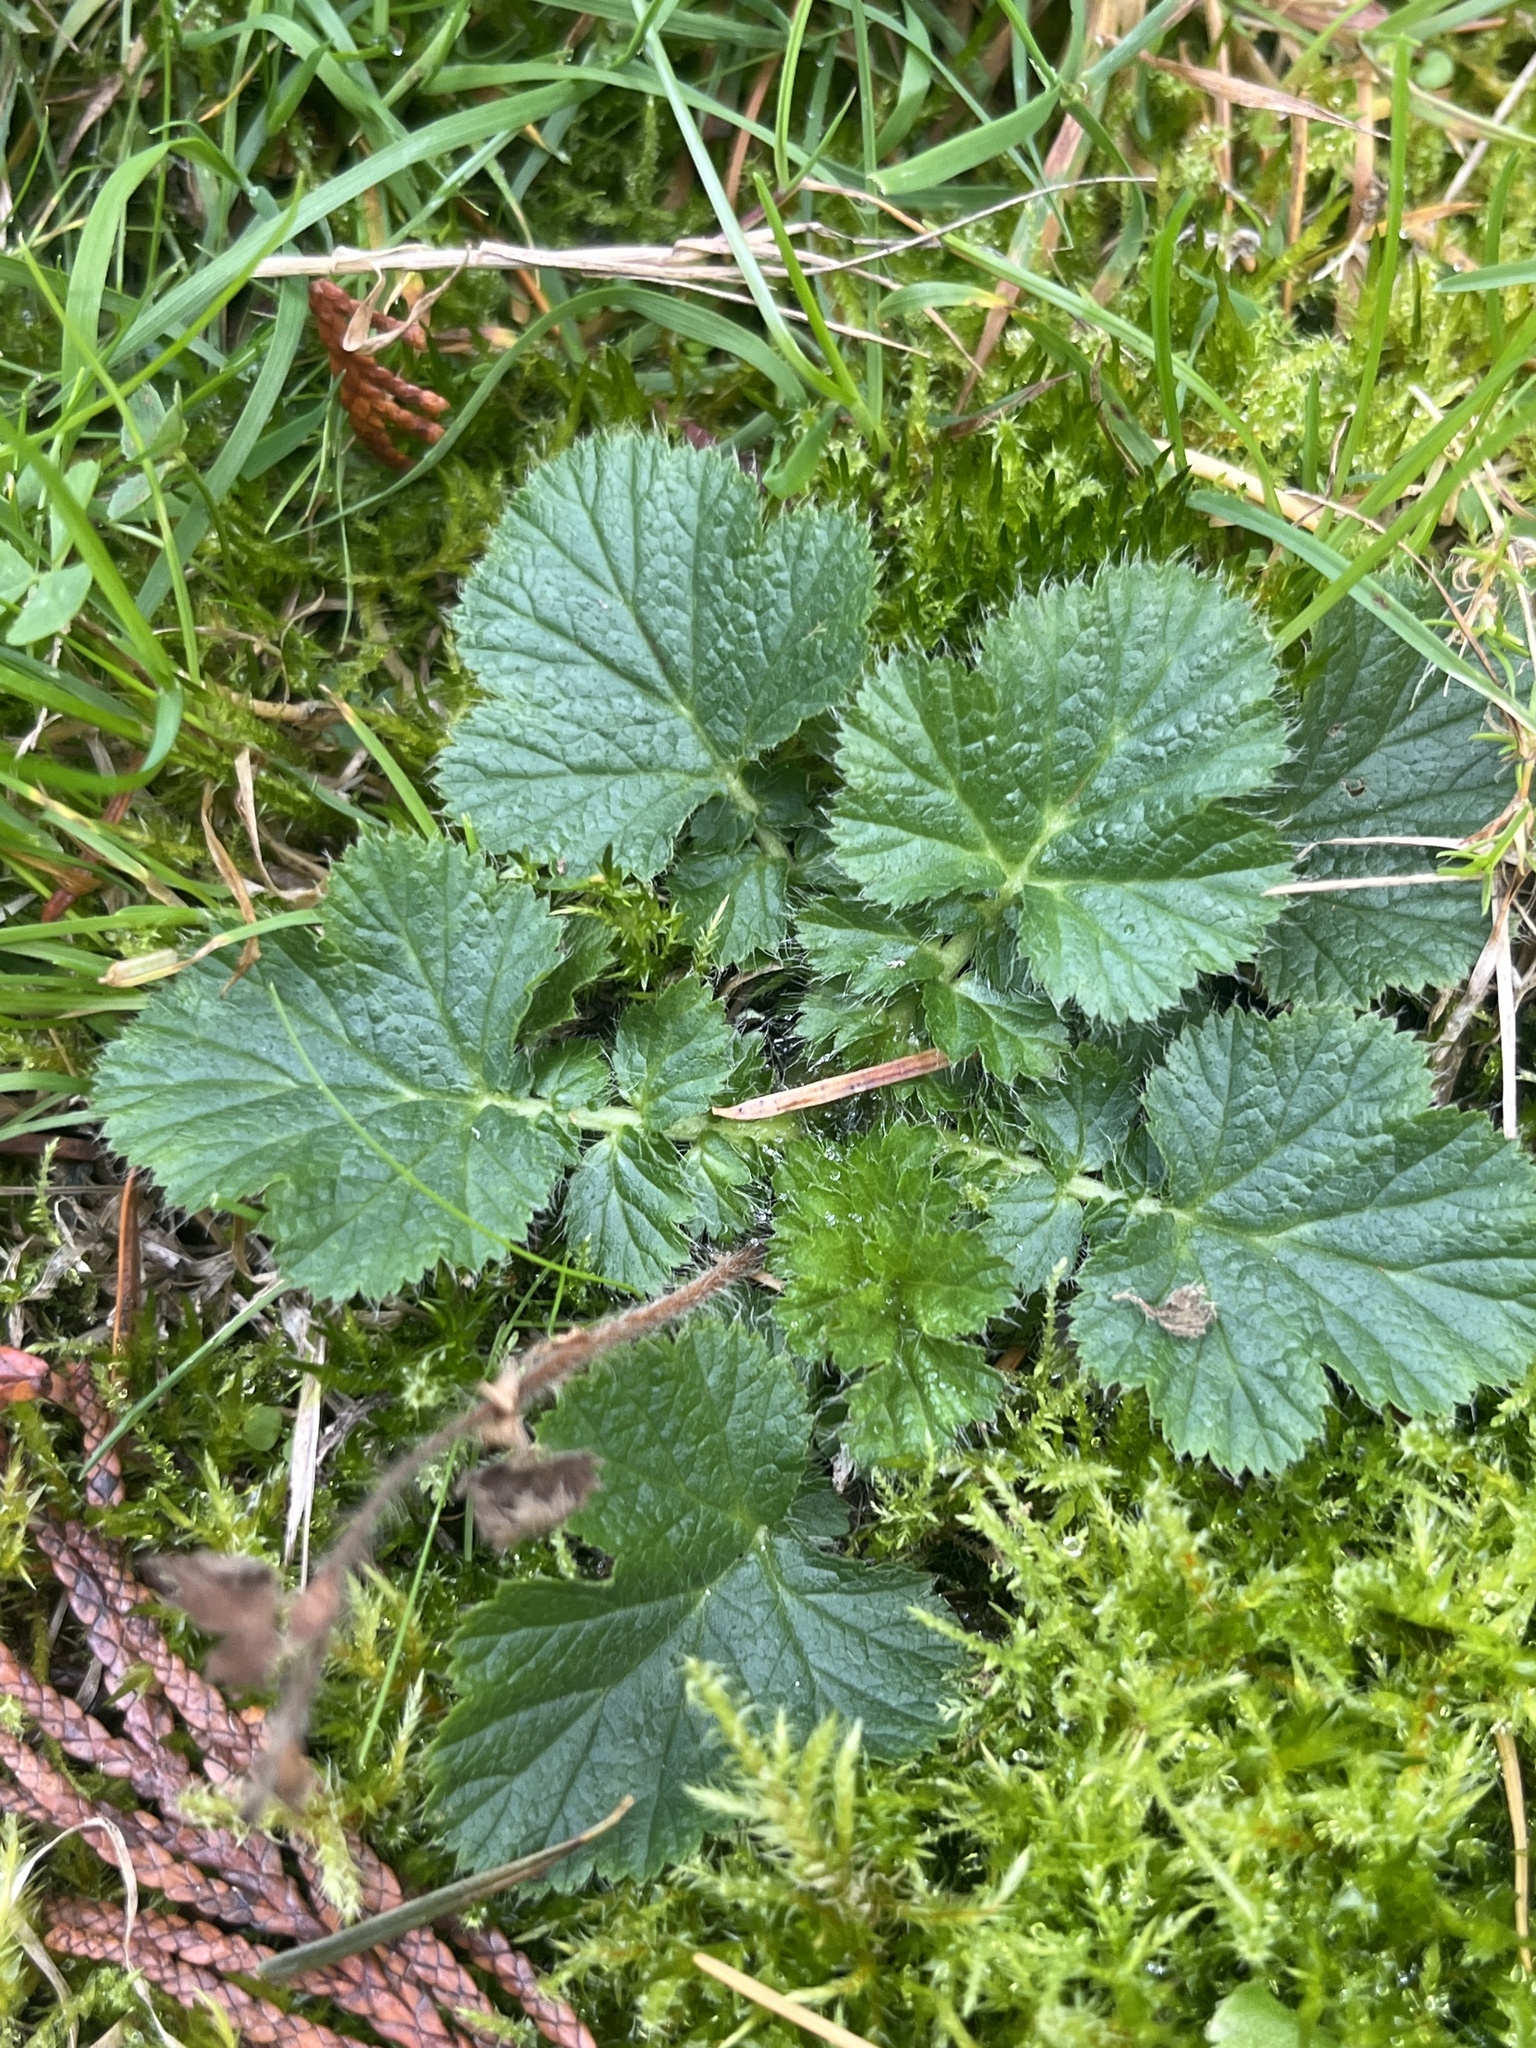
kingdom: Plantae
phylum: Tracheophyta
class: Magnoliopsida
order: Rosales
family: Rosaceae
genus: Geum
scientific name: Geum macrophyllum
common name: Large-leaved avens
